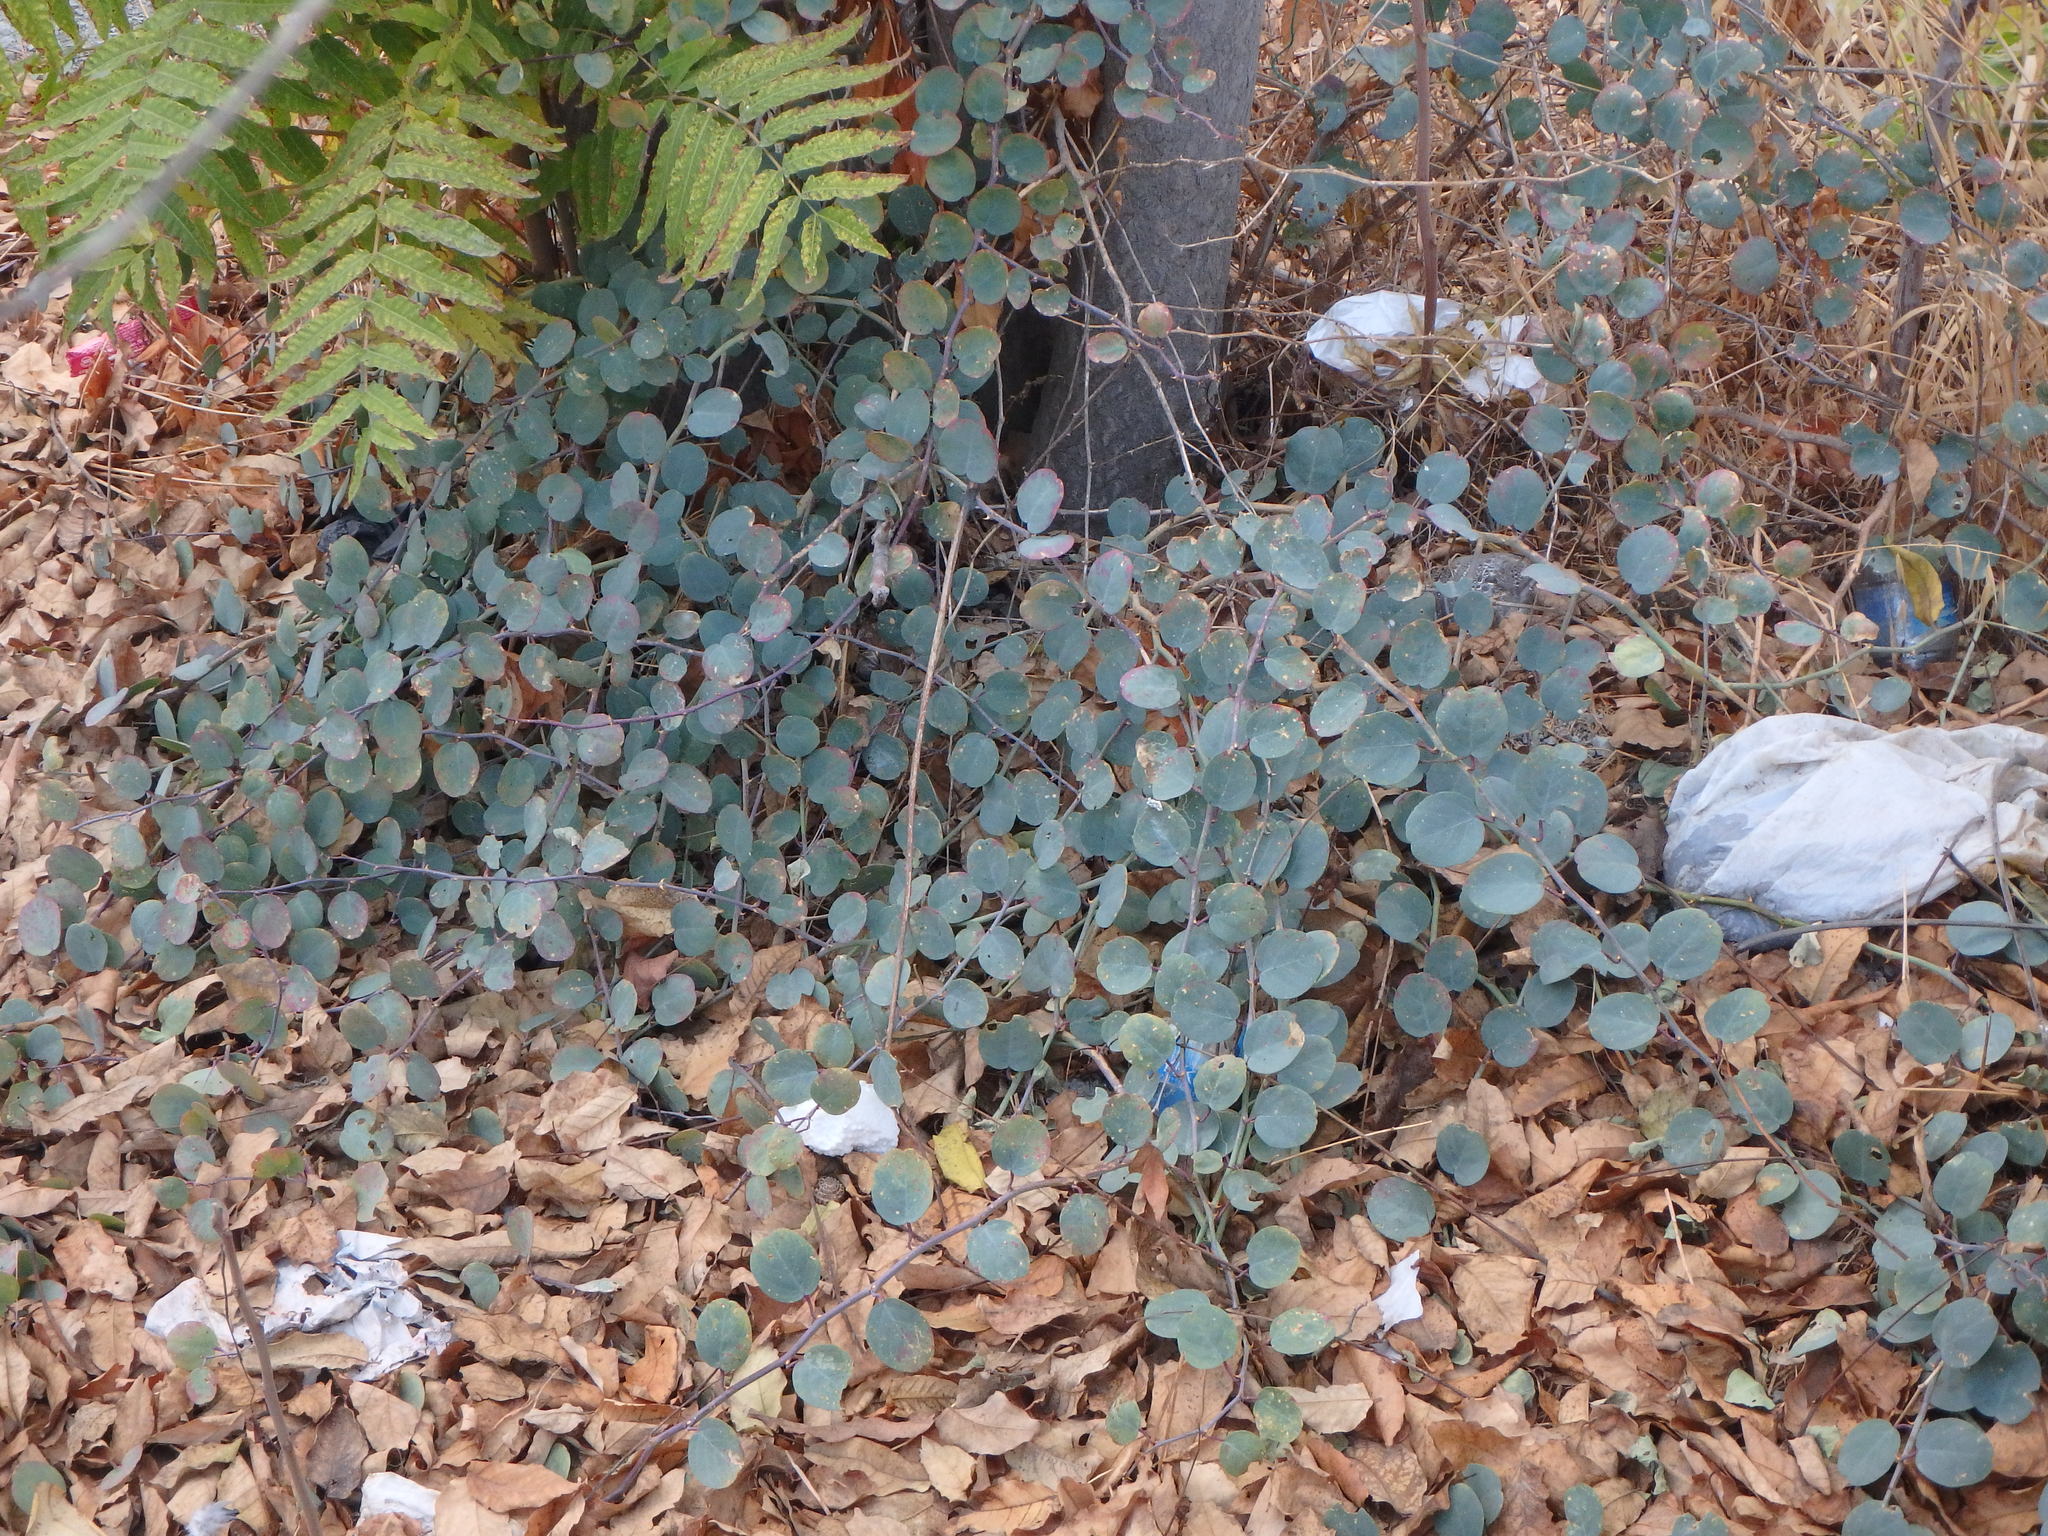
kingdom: Plantae
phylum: Tracheophyta
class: Magnoliopsida
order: Brassicales
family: Capparaceae
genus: Capparis
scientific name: Capparis spinosa
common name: Caper
